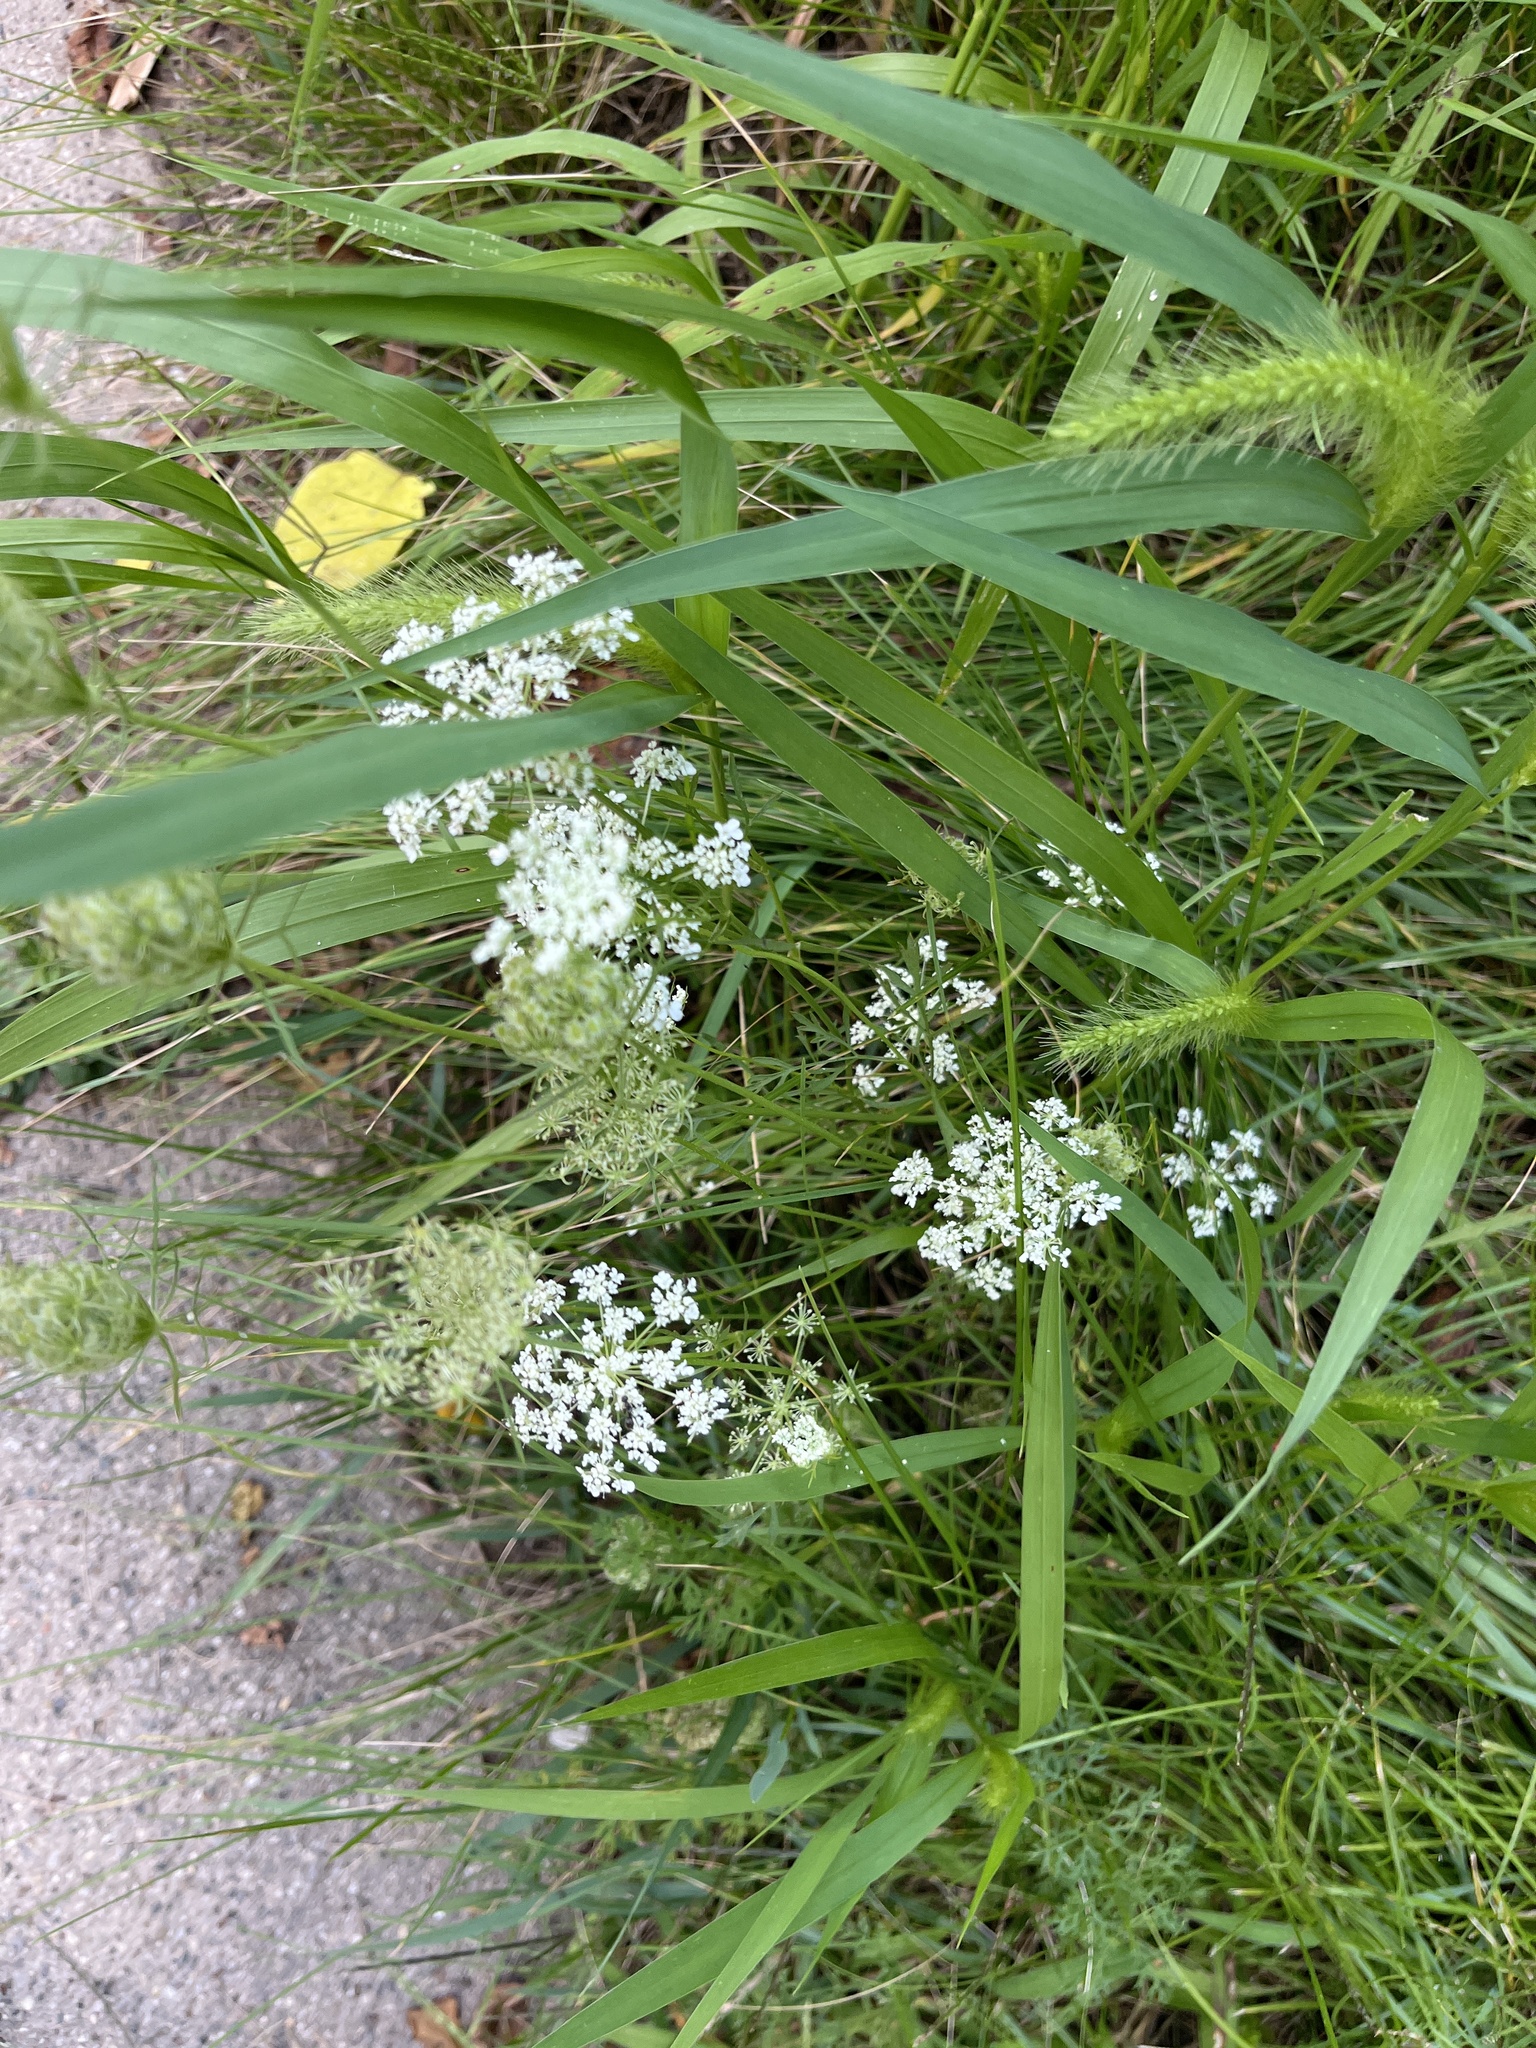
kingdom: Plantae
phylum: Tracheophyta
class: Magnoliopsida
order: Apiales
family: Apiaceae
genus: Daucus
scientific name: Daucus carota
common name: Wild carrot
